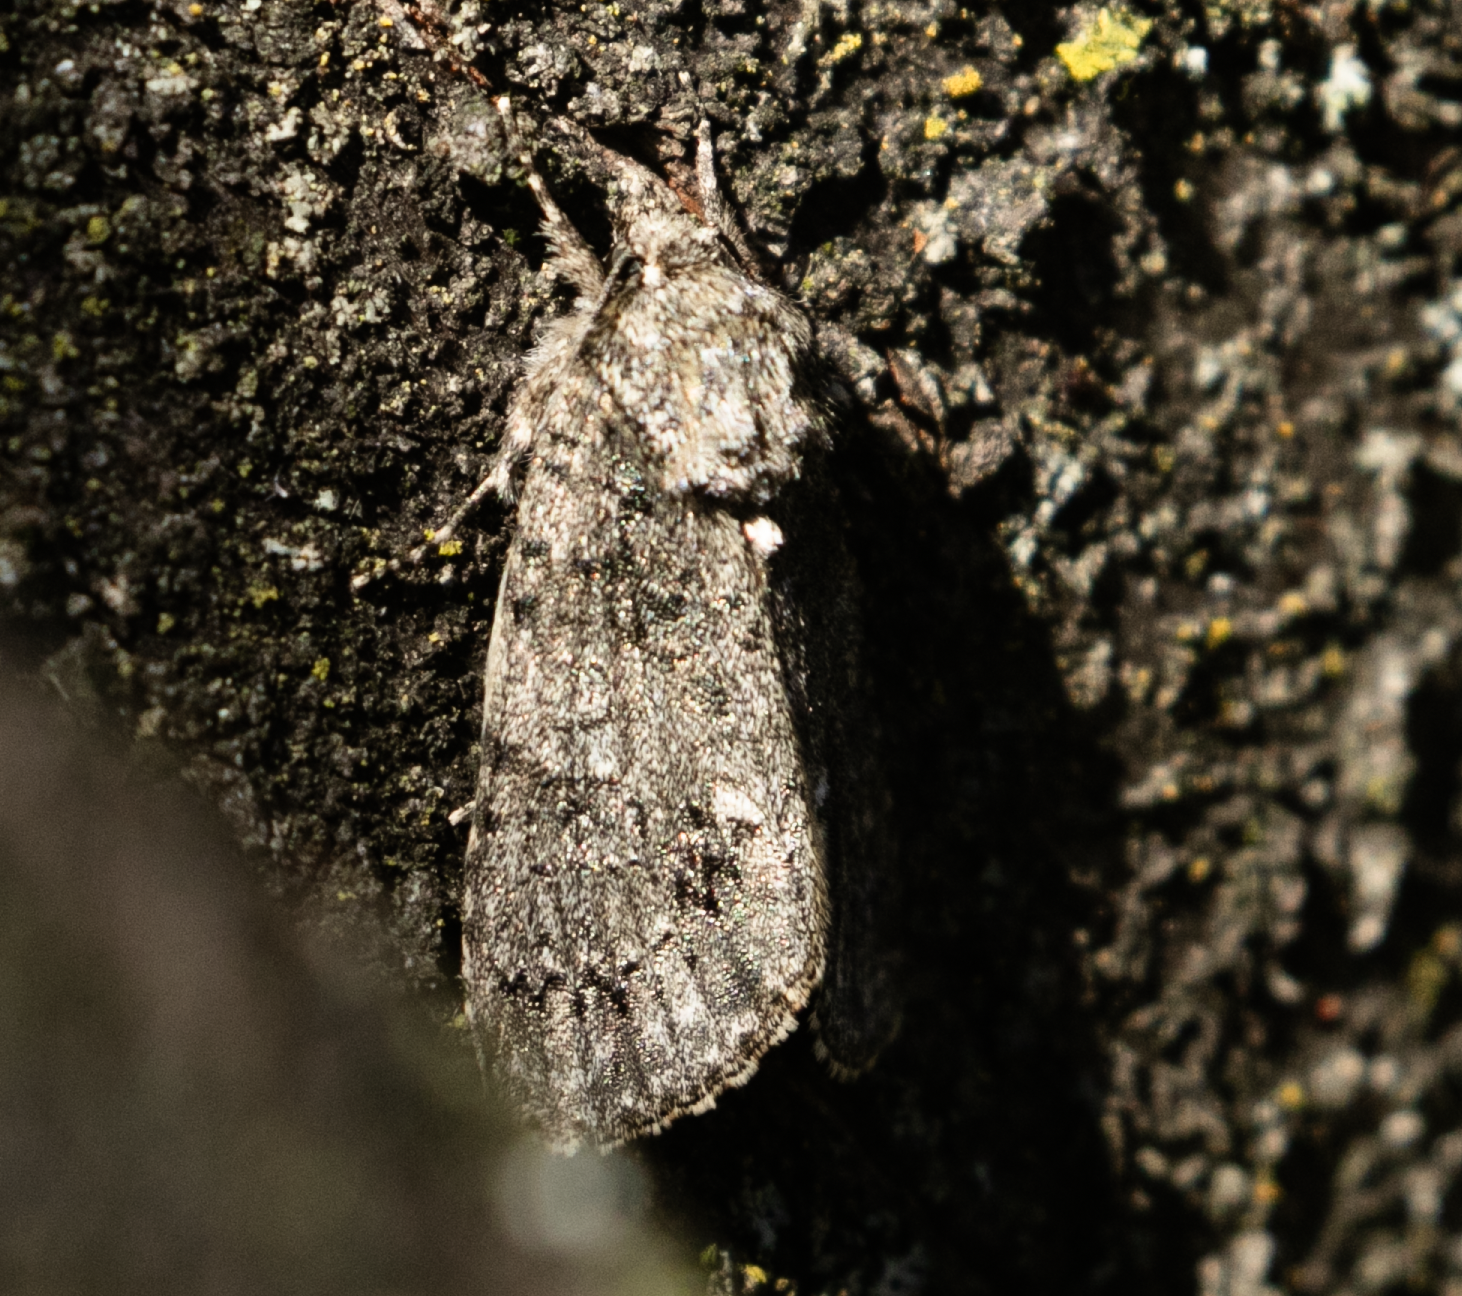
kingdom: Animalia
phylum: Arthropoda
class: Insecta
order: Lepidoptera
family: Noctuidae
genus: Acronicta
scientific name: Acronicta rumicis
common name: Knot grass
